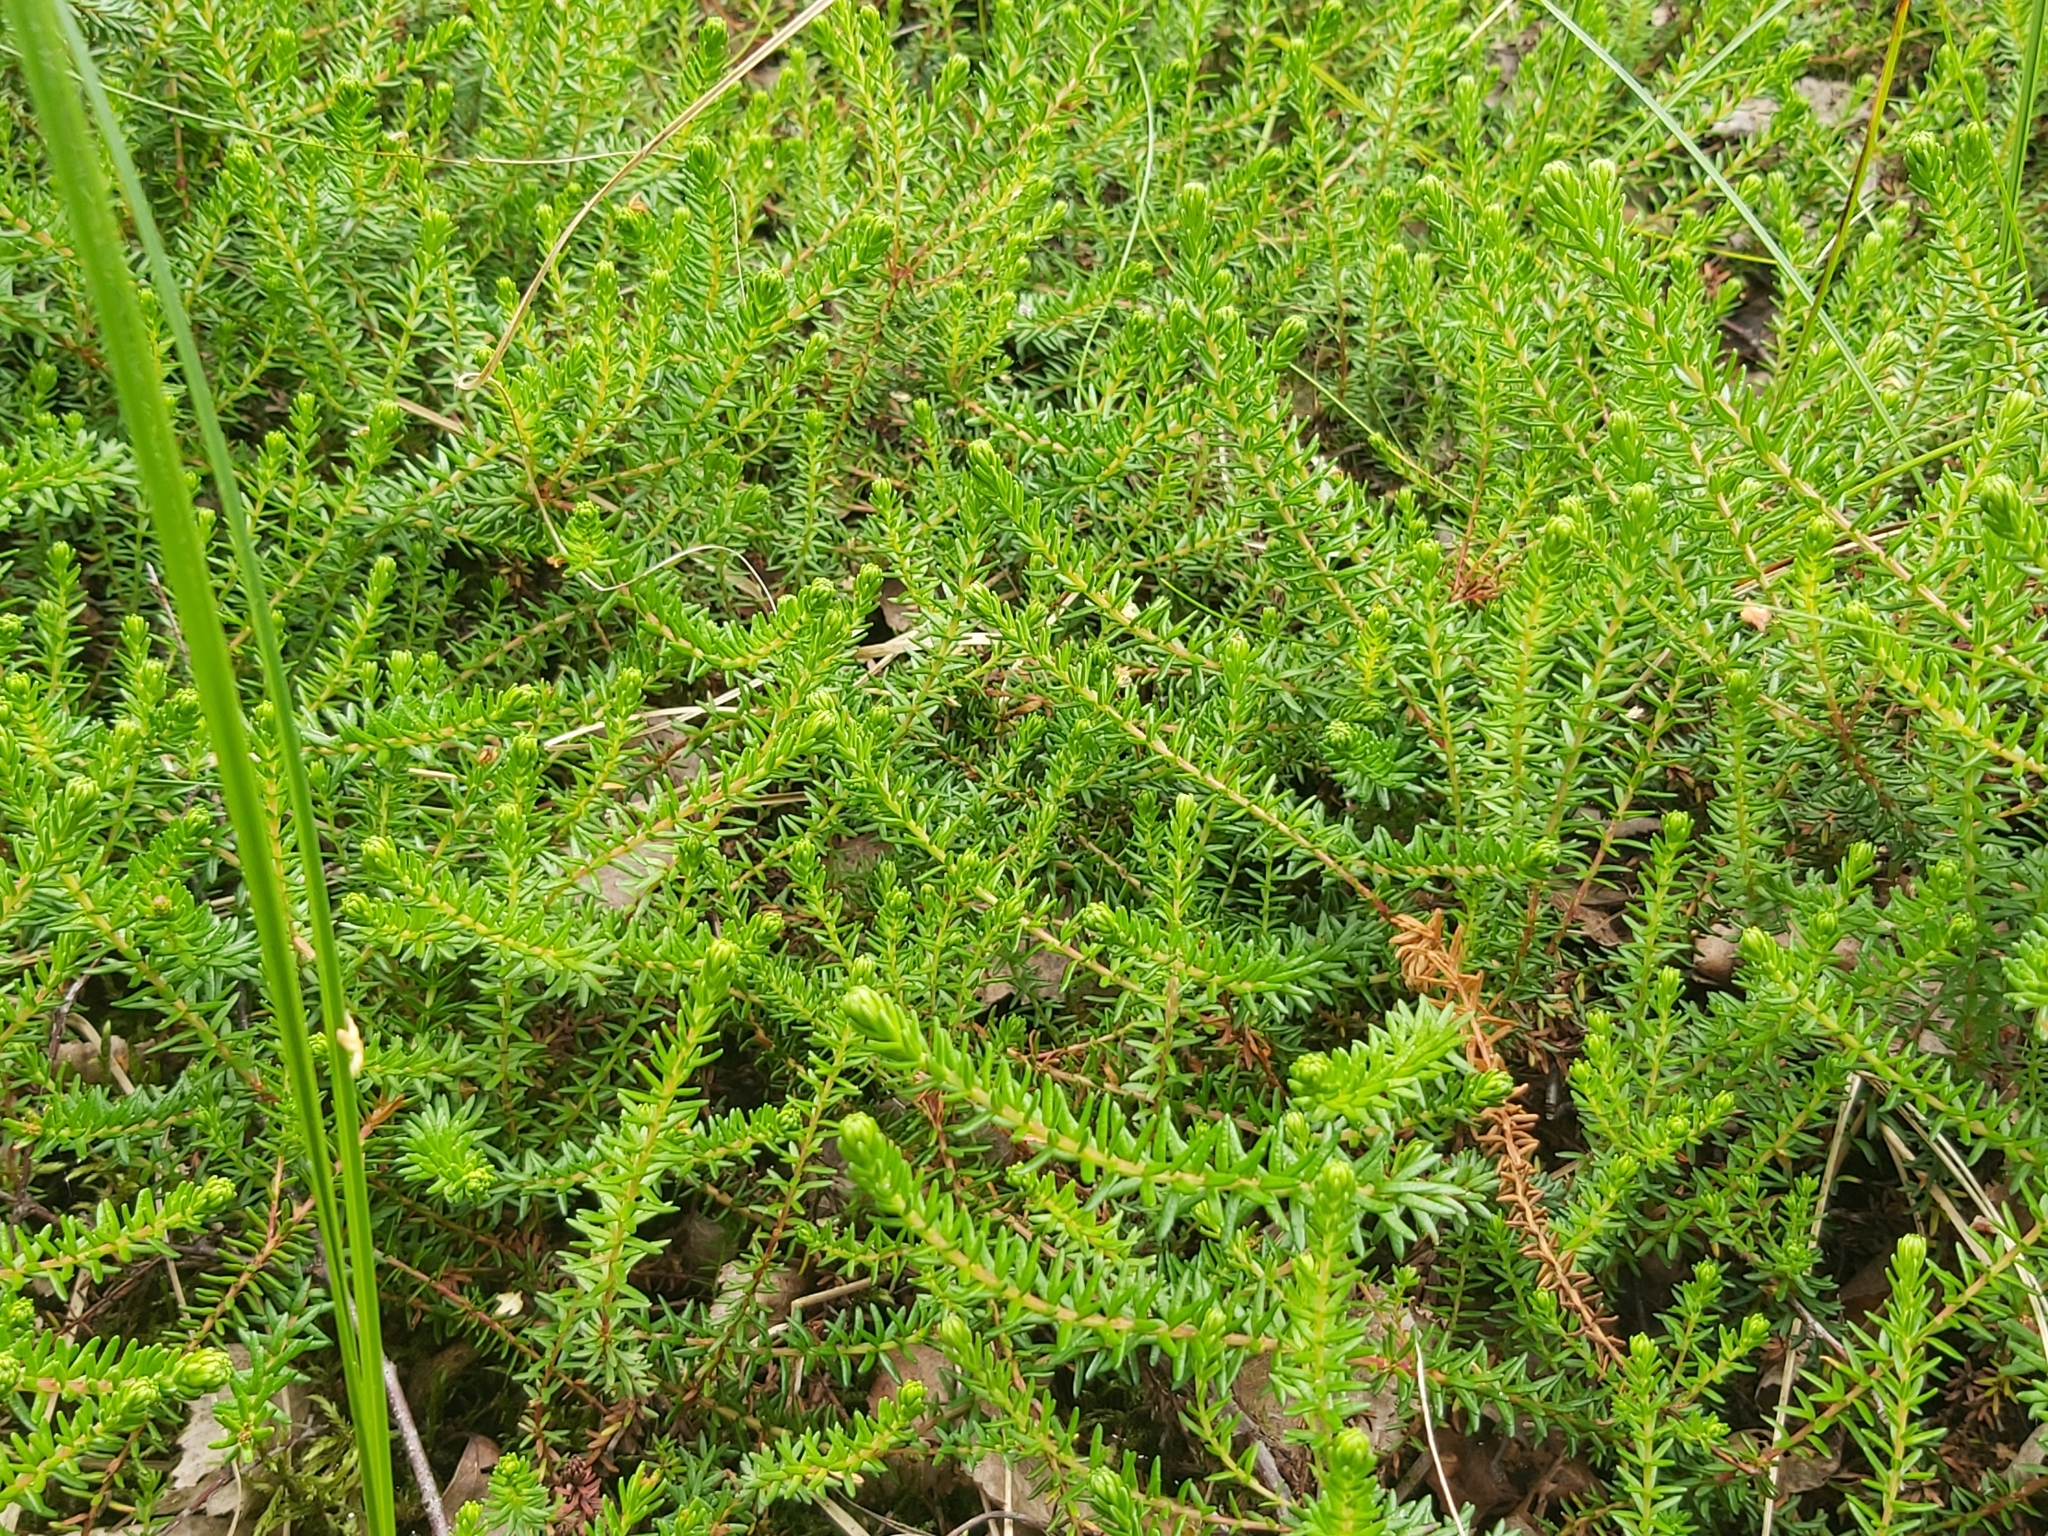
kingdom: Plantae
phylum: Tracheophyta
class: Magnoliopsida
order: Ericales
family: Ericaceae
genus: Empetrum
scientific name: Empetrum nigrum
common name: Black crowberry
